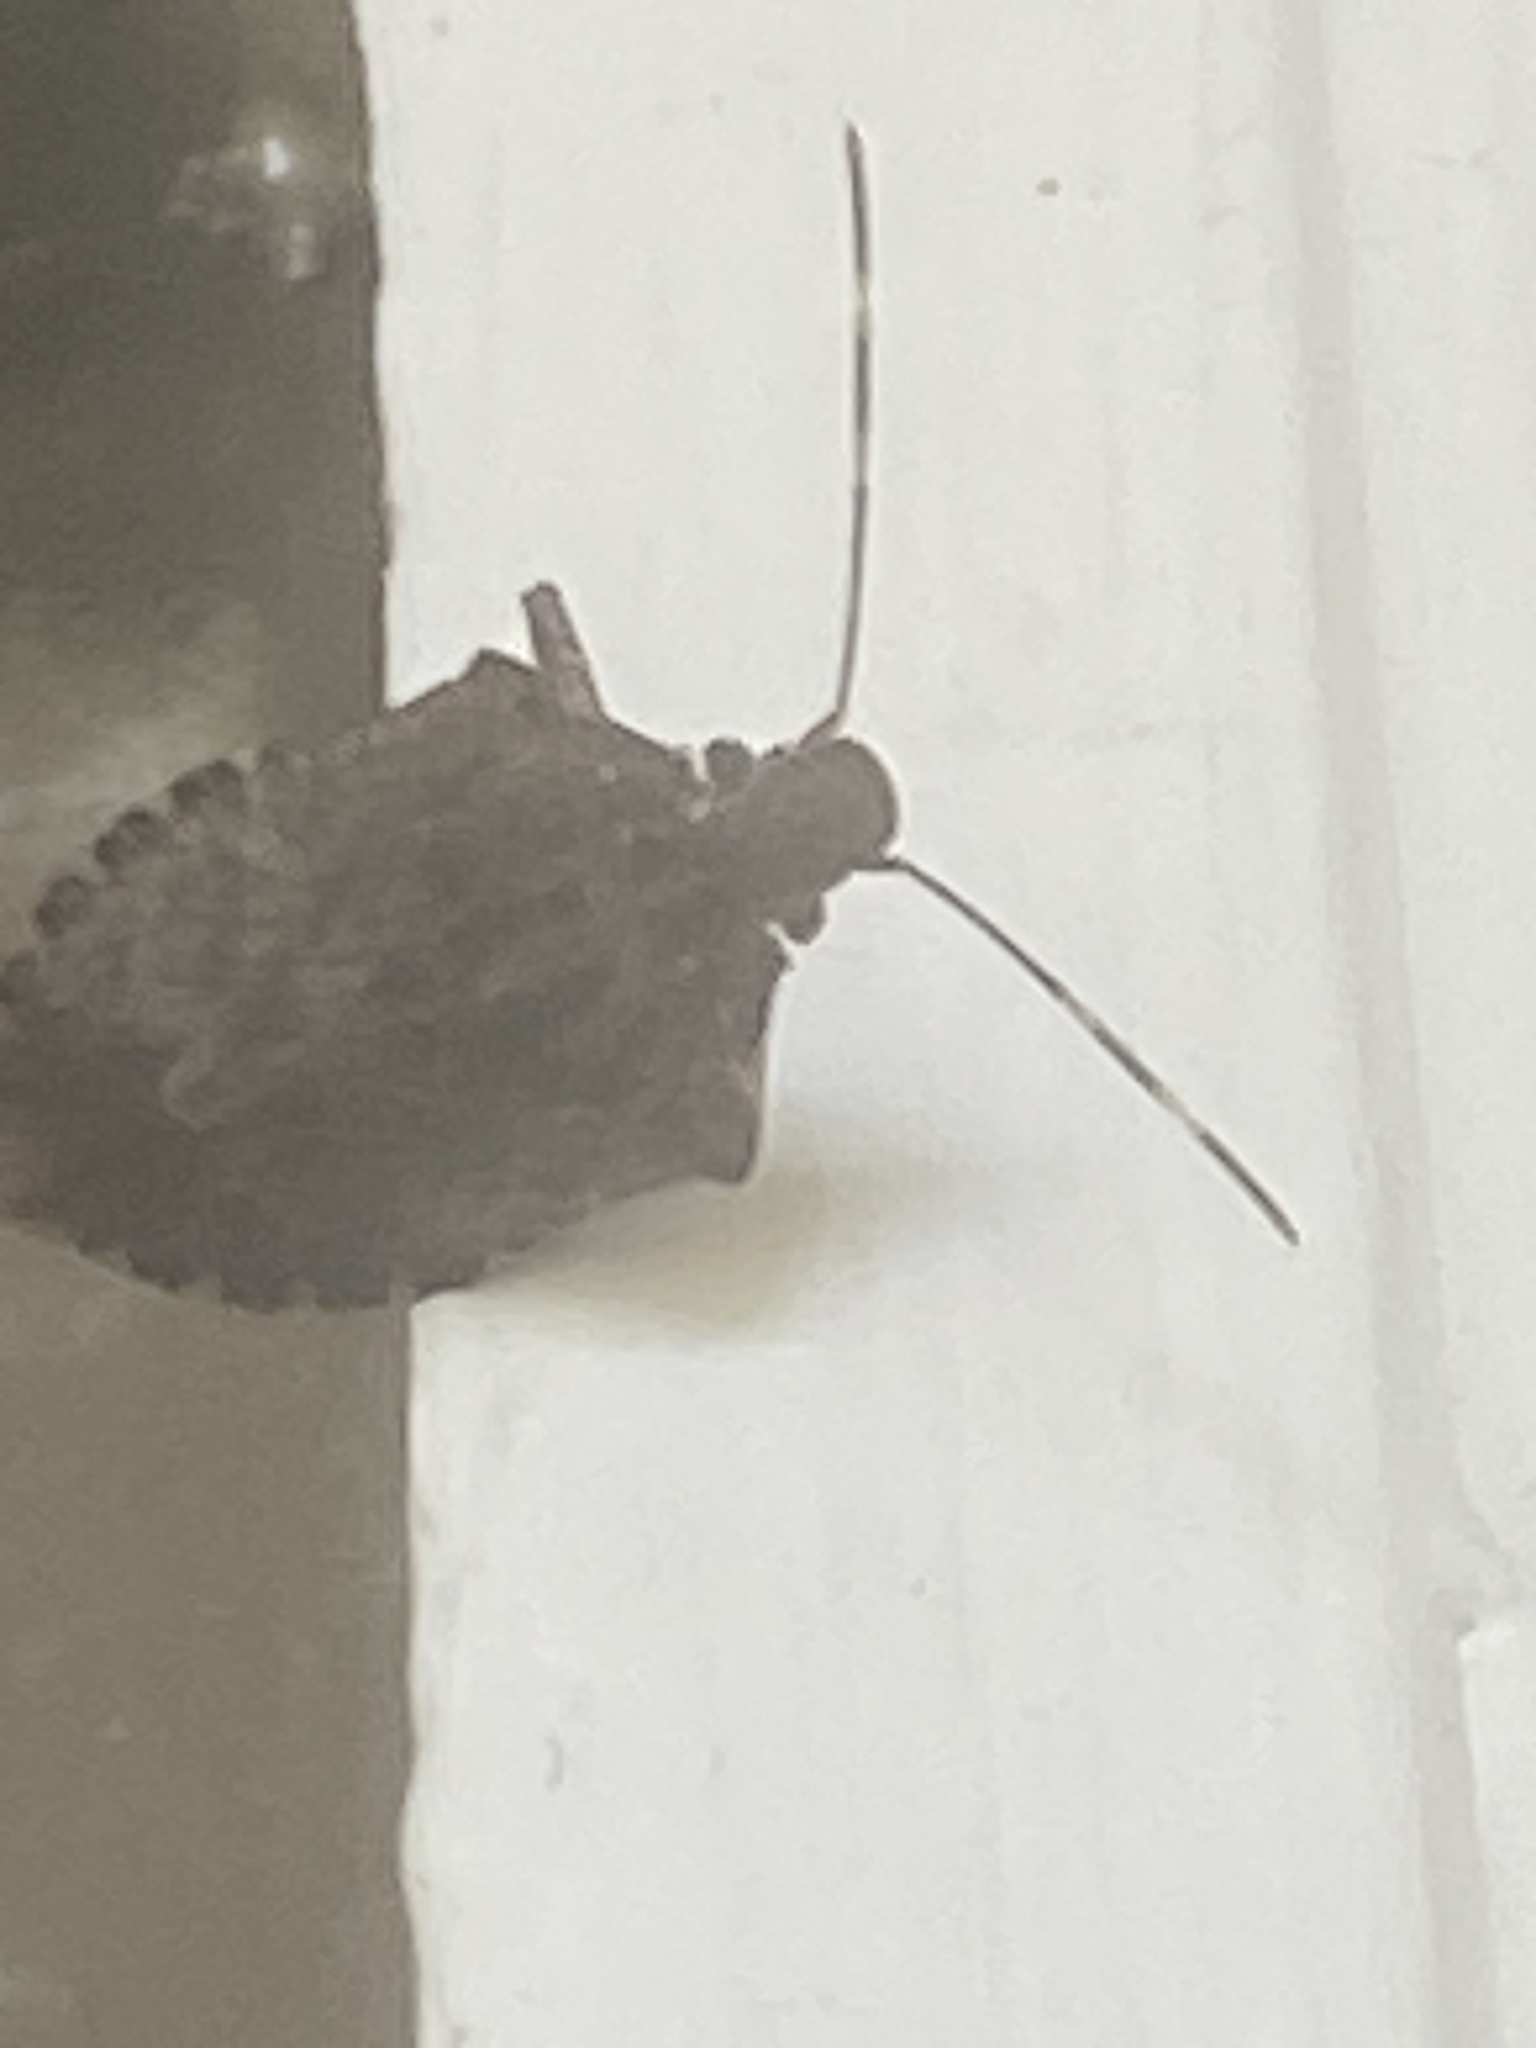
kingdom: Animalia
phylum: Arthropoda
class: Insecta
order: Hemiptera
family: Pentatomidae
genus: Halyomorpha
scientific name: Halyomorpha halys
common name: Brown marmorated stink bug
